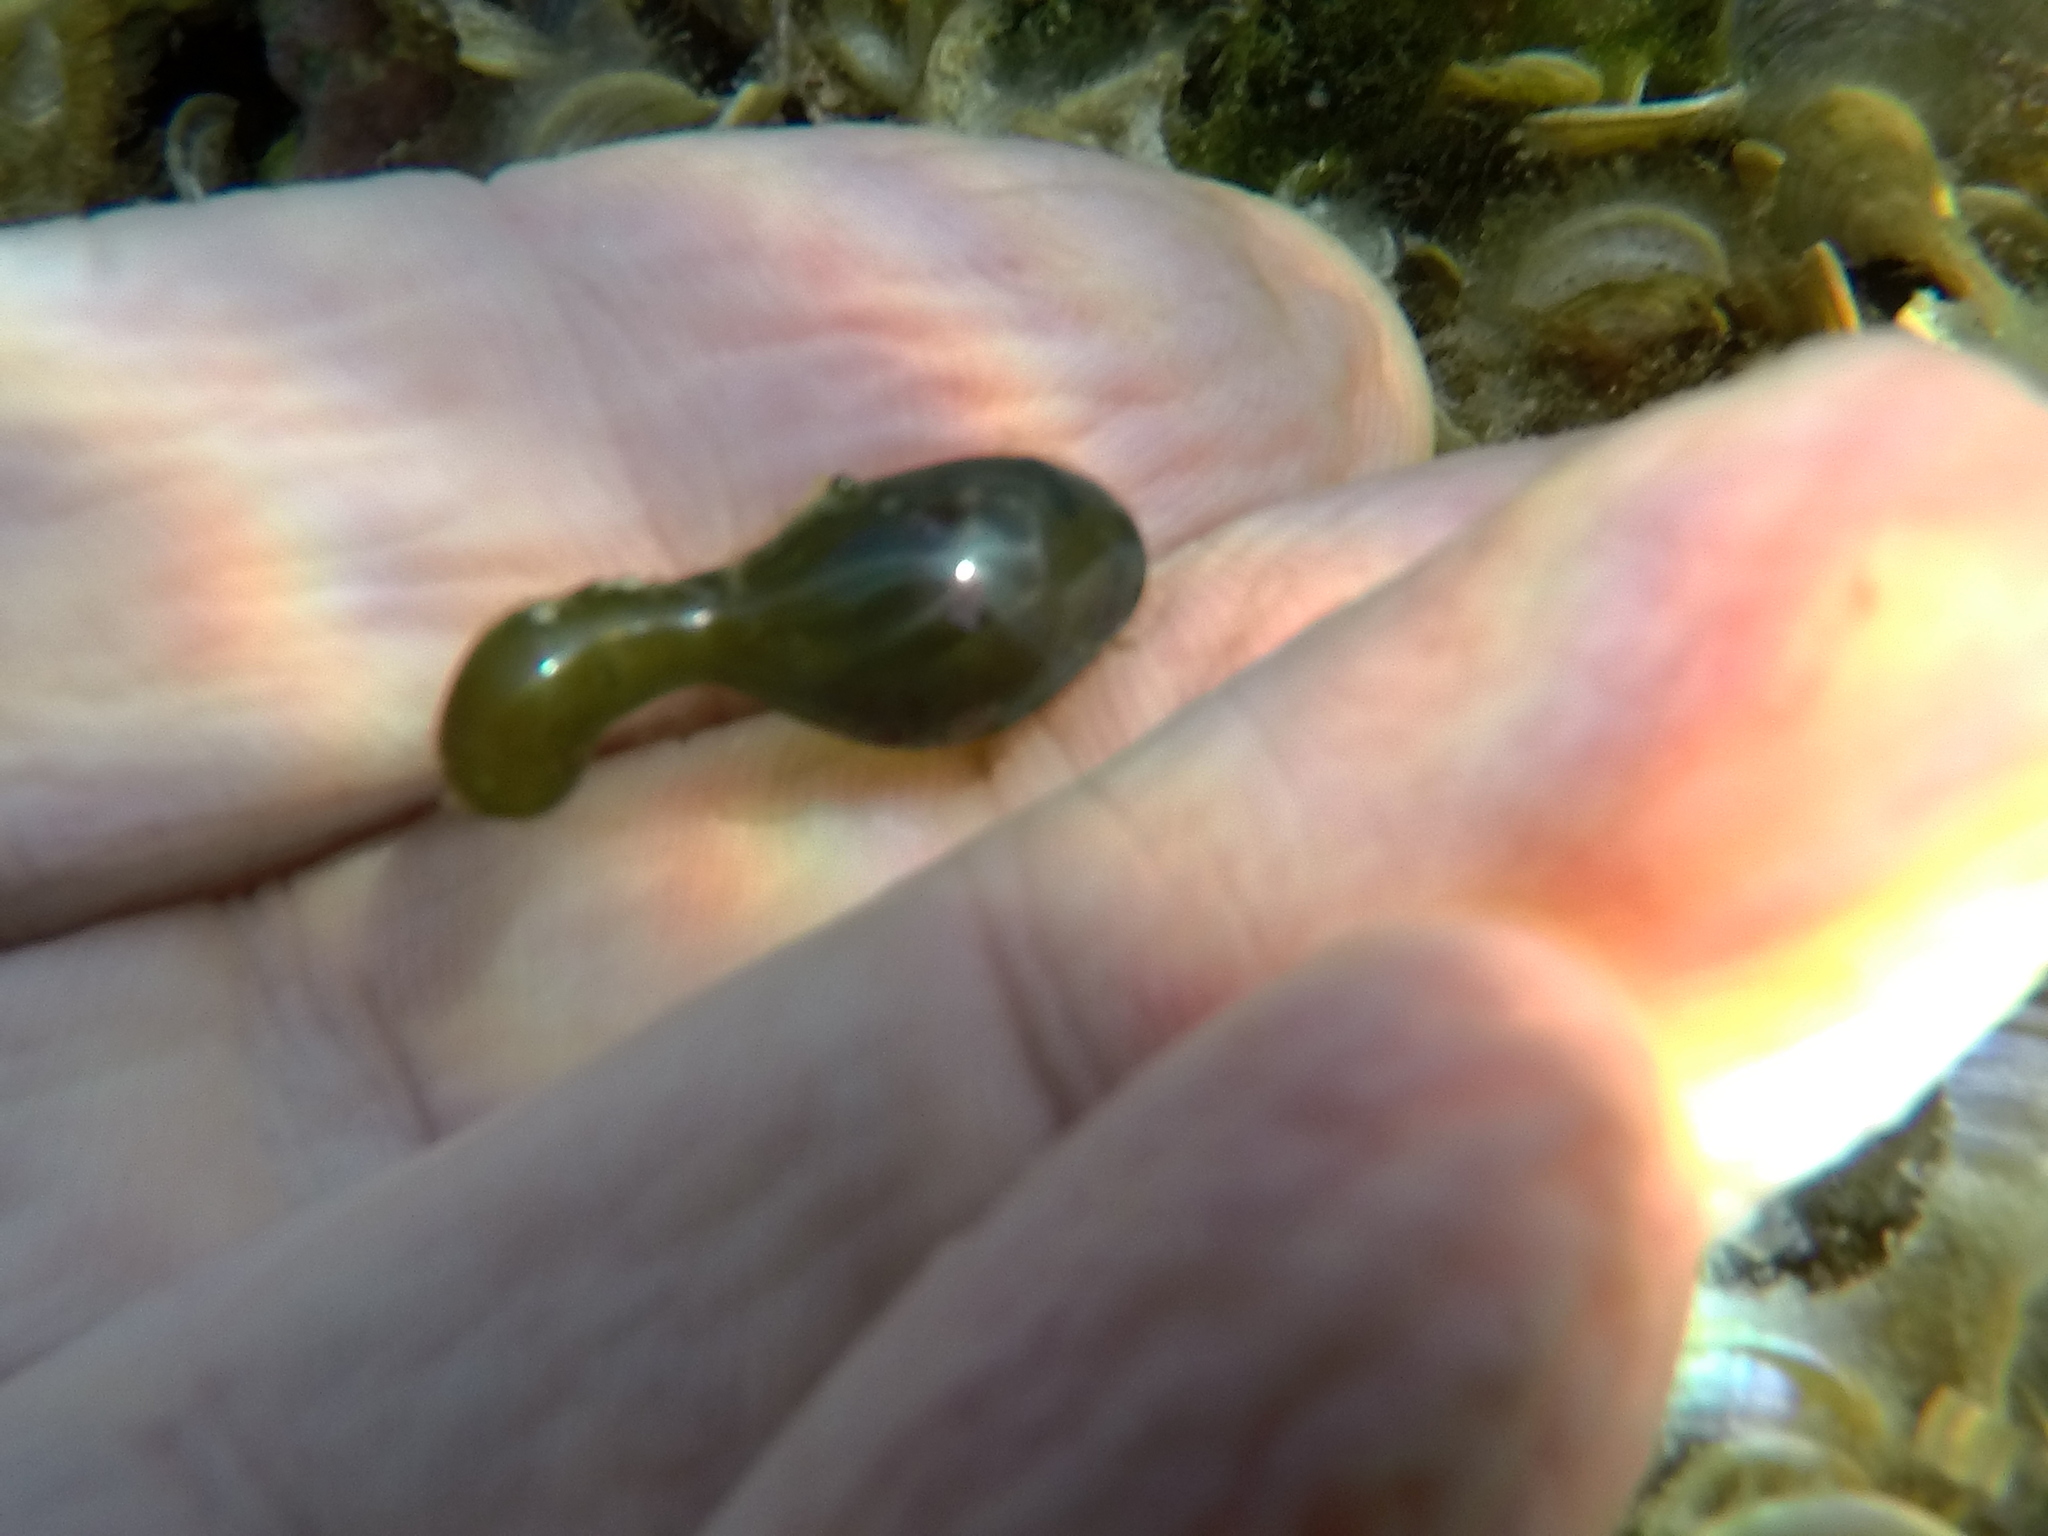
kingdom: Plantae
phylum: Chlorophyta
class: Ulvophyceae
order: Siphonocladales
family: Valoniaceae
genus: Valonia
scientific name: Valonia macrophysa
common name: Elongated sea pearls
